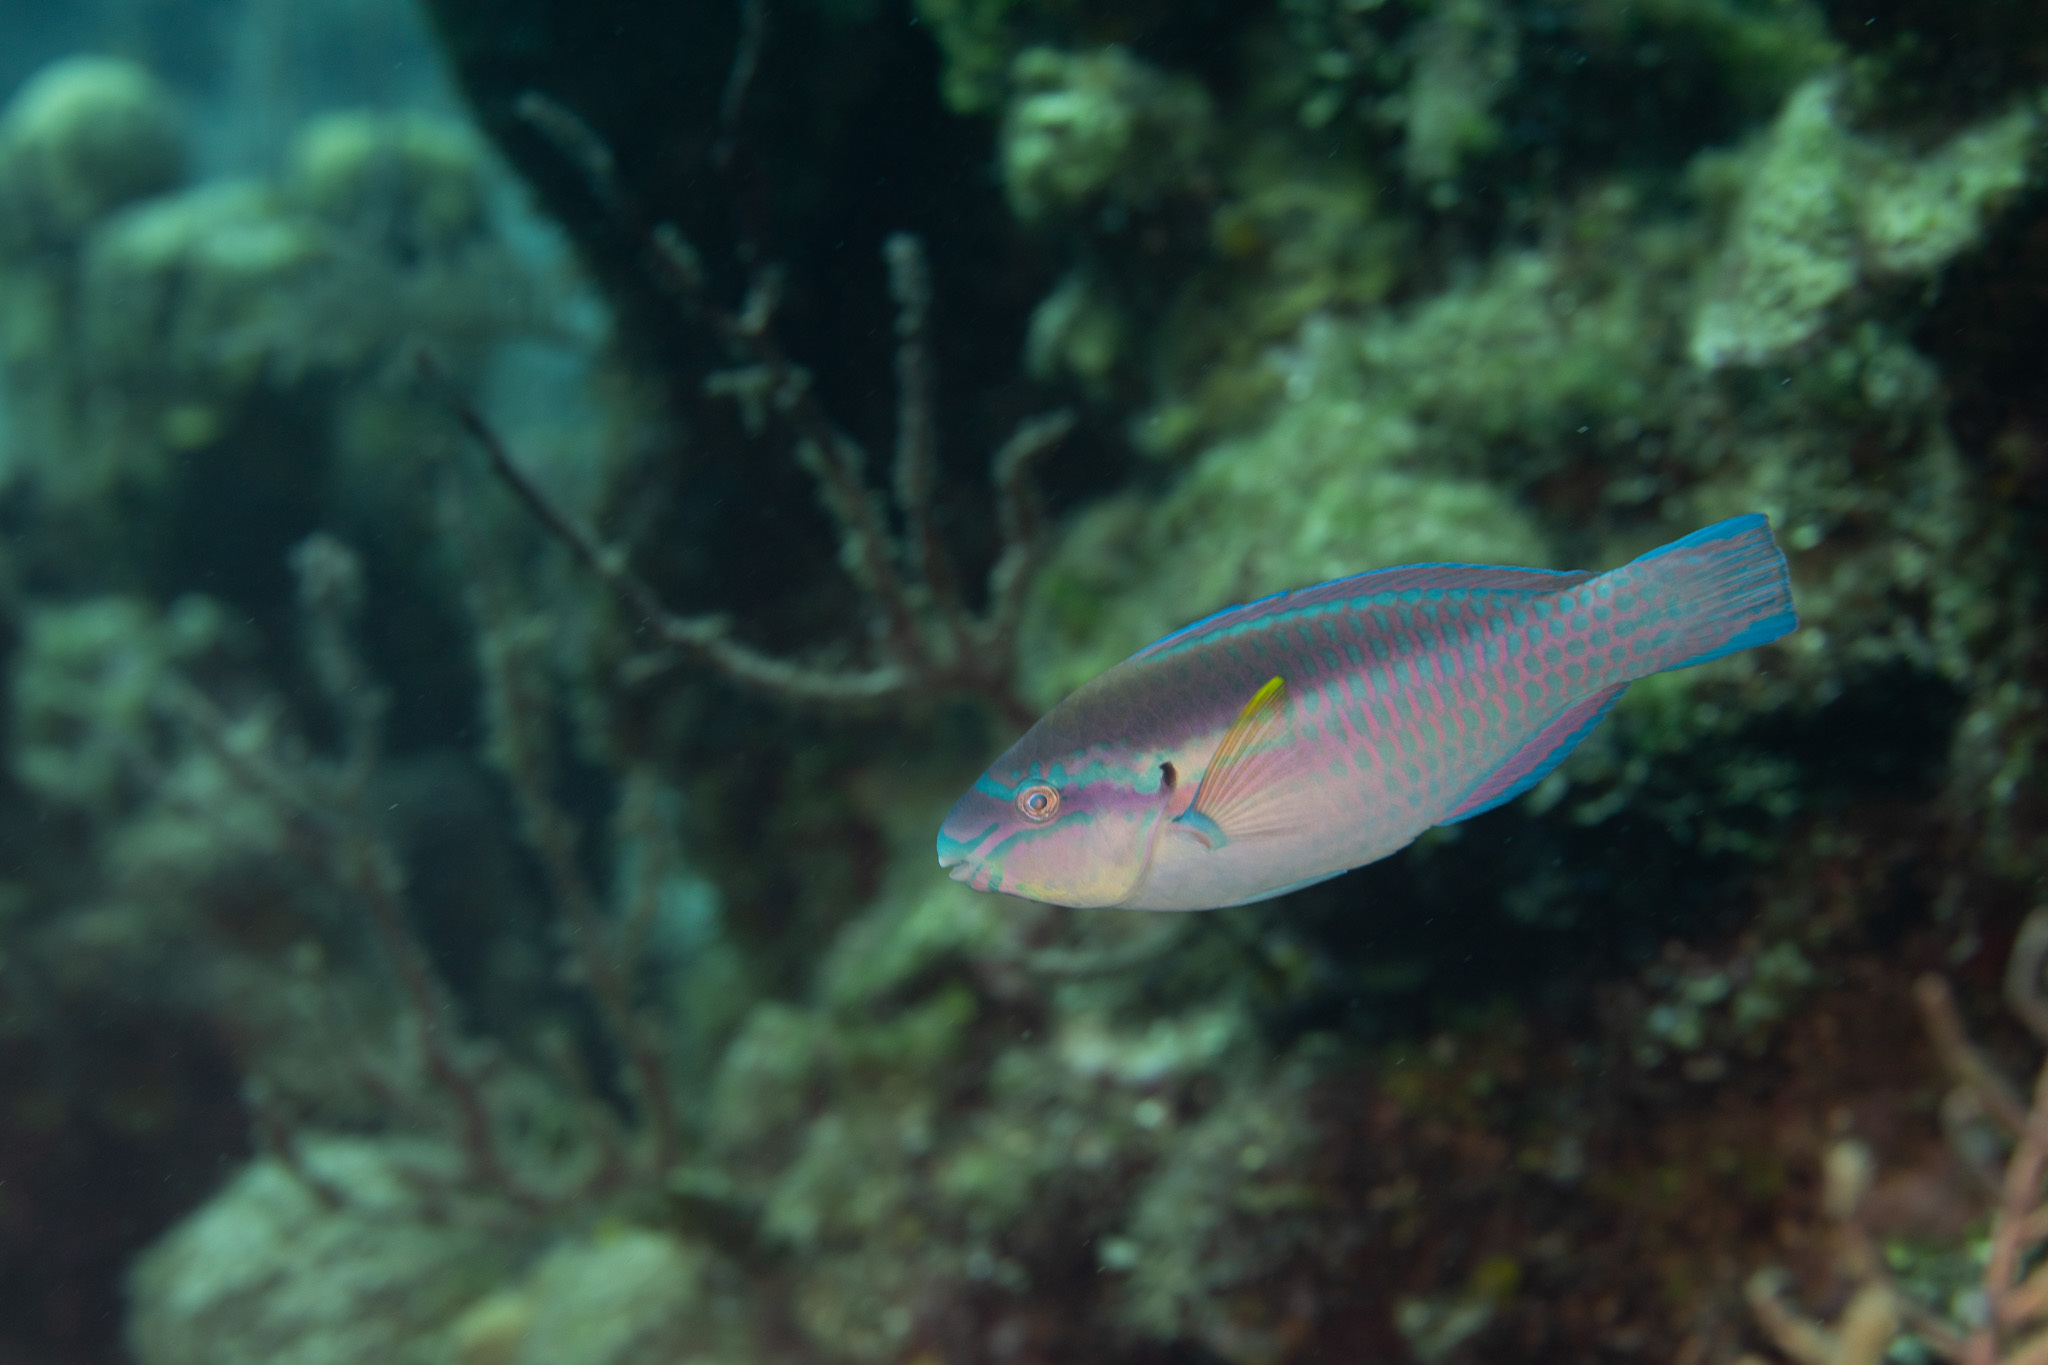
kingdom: Animalia
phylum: Chordata
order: Perciformes
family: Scaridae
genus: Scarus
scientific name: Scarus iseri
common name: Striped parrotfish
